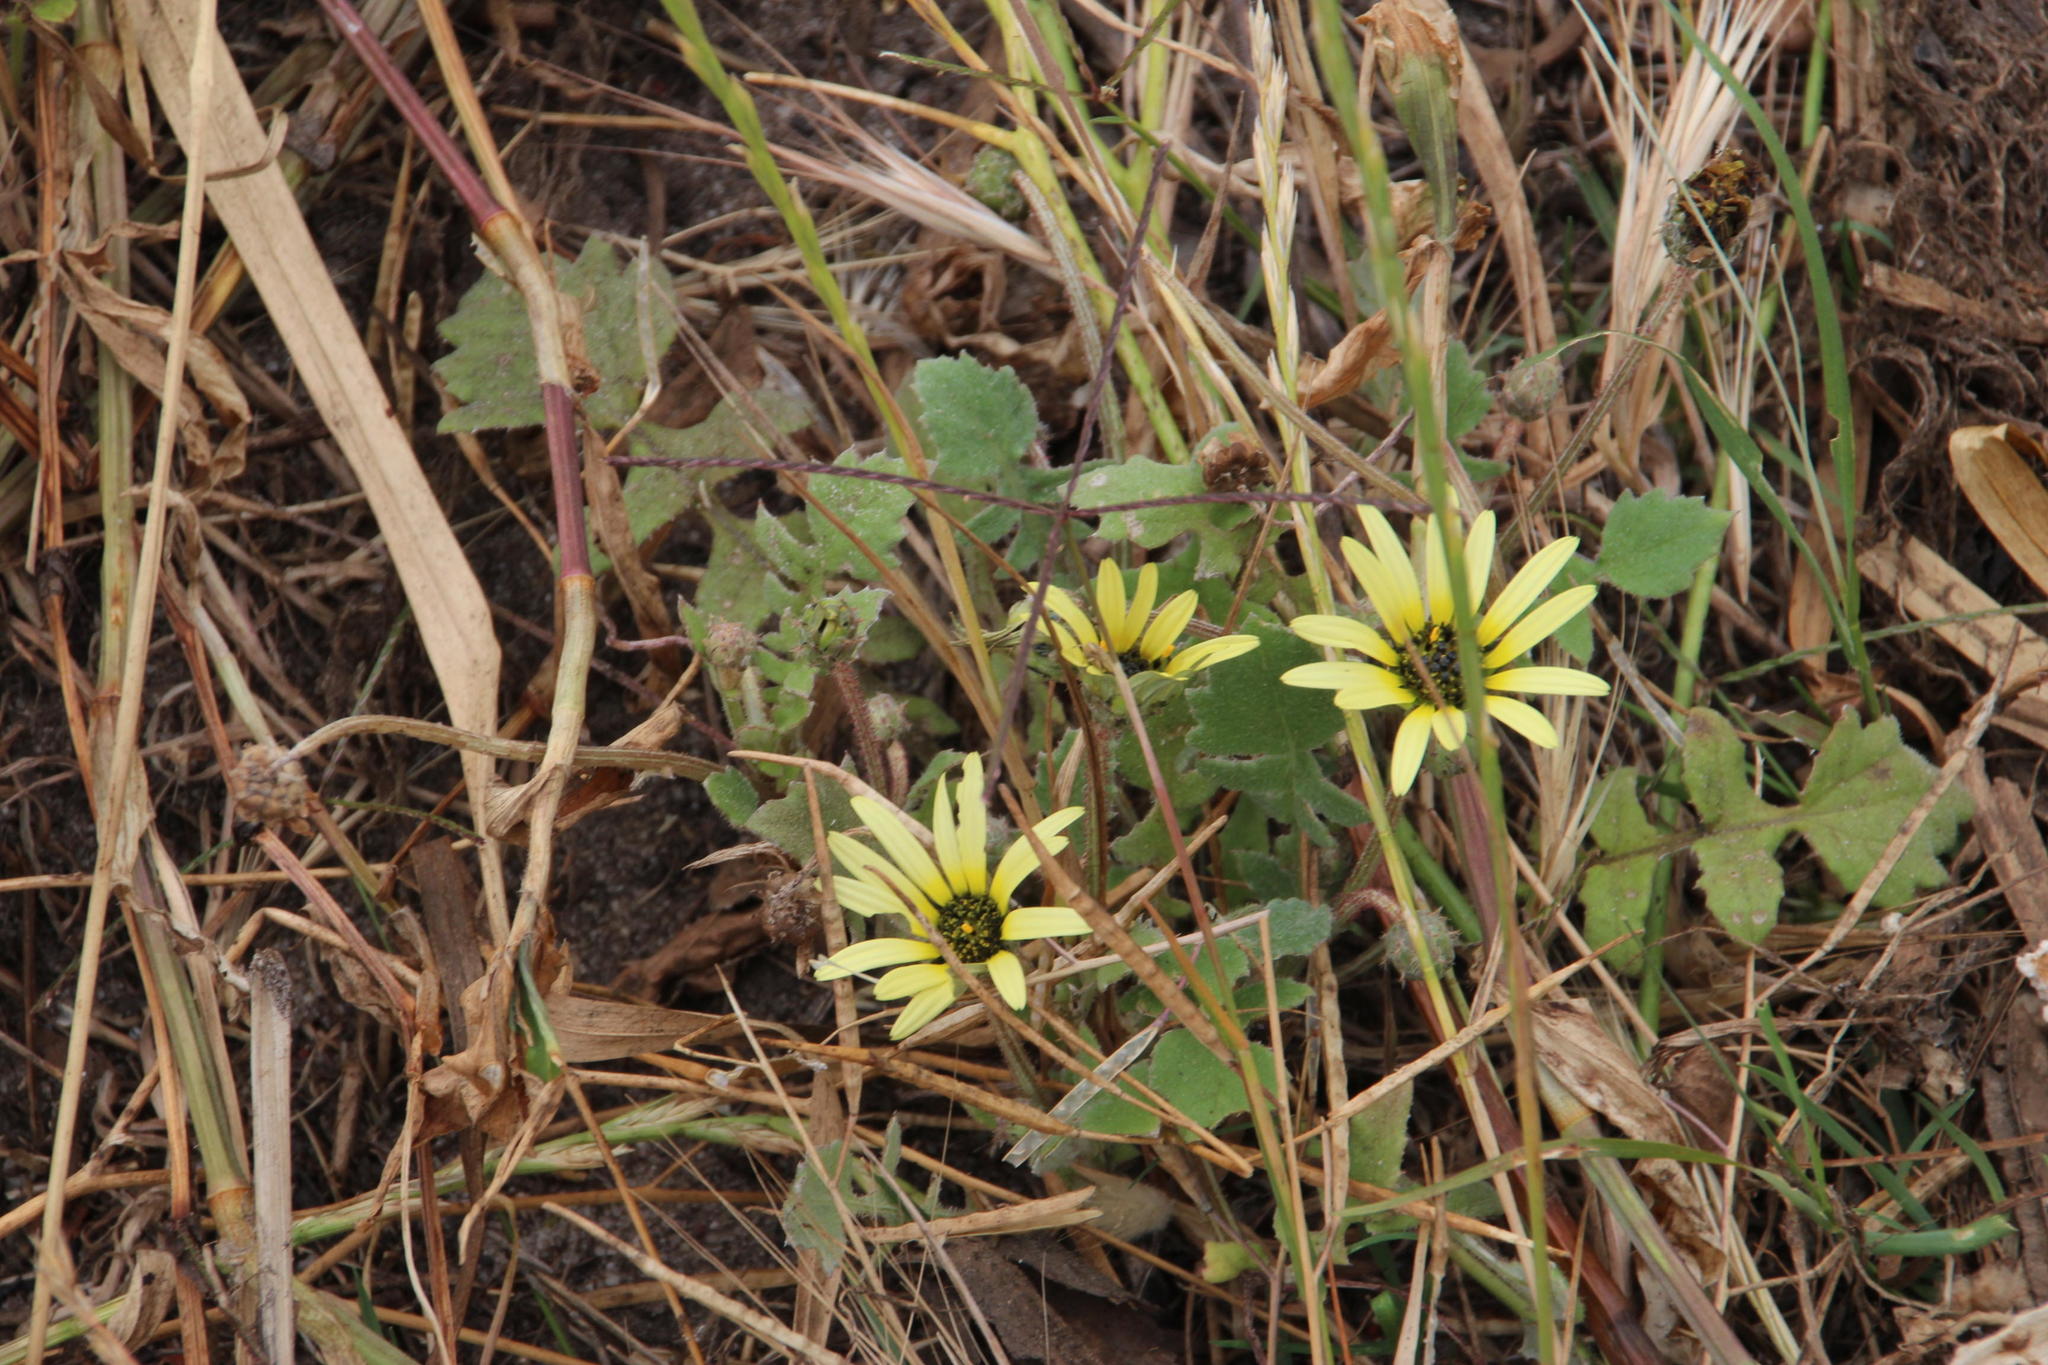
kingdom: Plantae
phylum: Tracheophyta
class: Magnoliopsida
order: Asterales
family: Asteraceae
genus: Arctotheca
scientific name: Arctotheca calendula
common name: Capeweed
